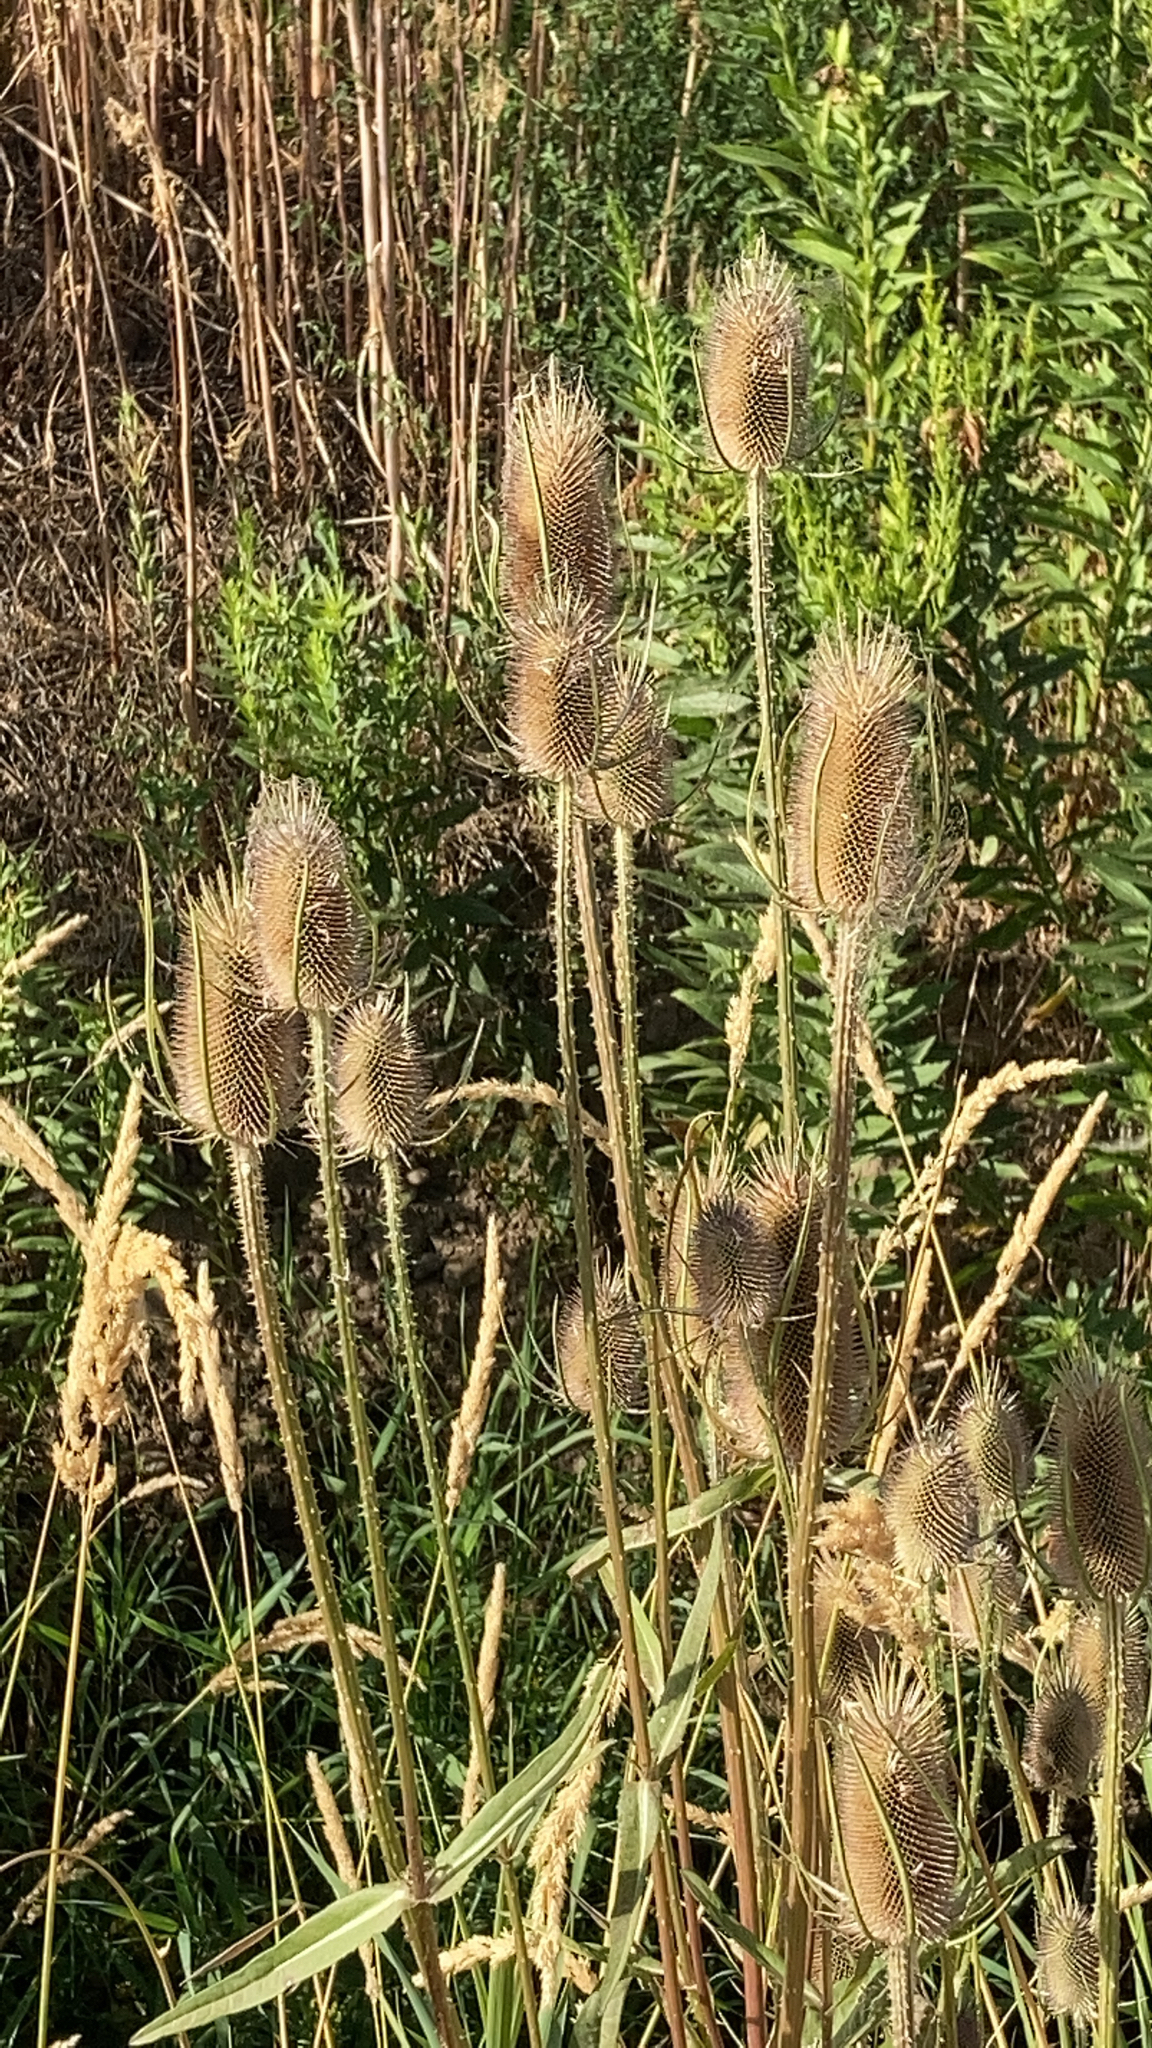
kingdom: Plantae
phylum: Tracheophyta
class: Magnoliopsida
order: Dipsacales
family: Caprifoliaceae
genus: Dipsacus
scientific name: Dipsacus fullonum
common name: Teasel
